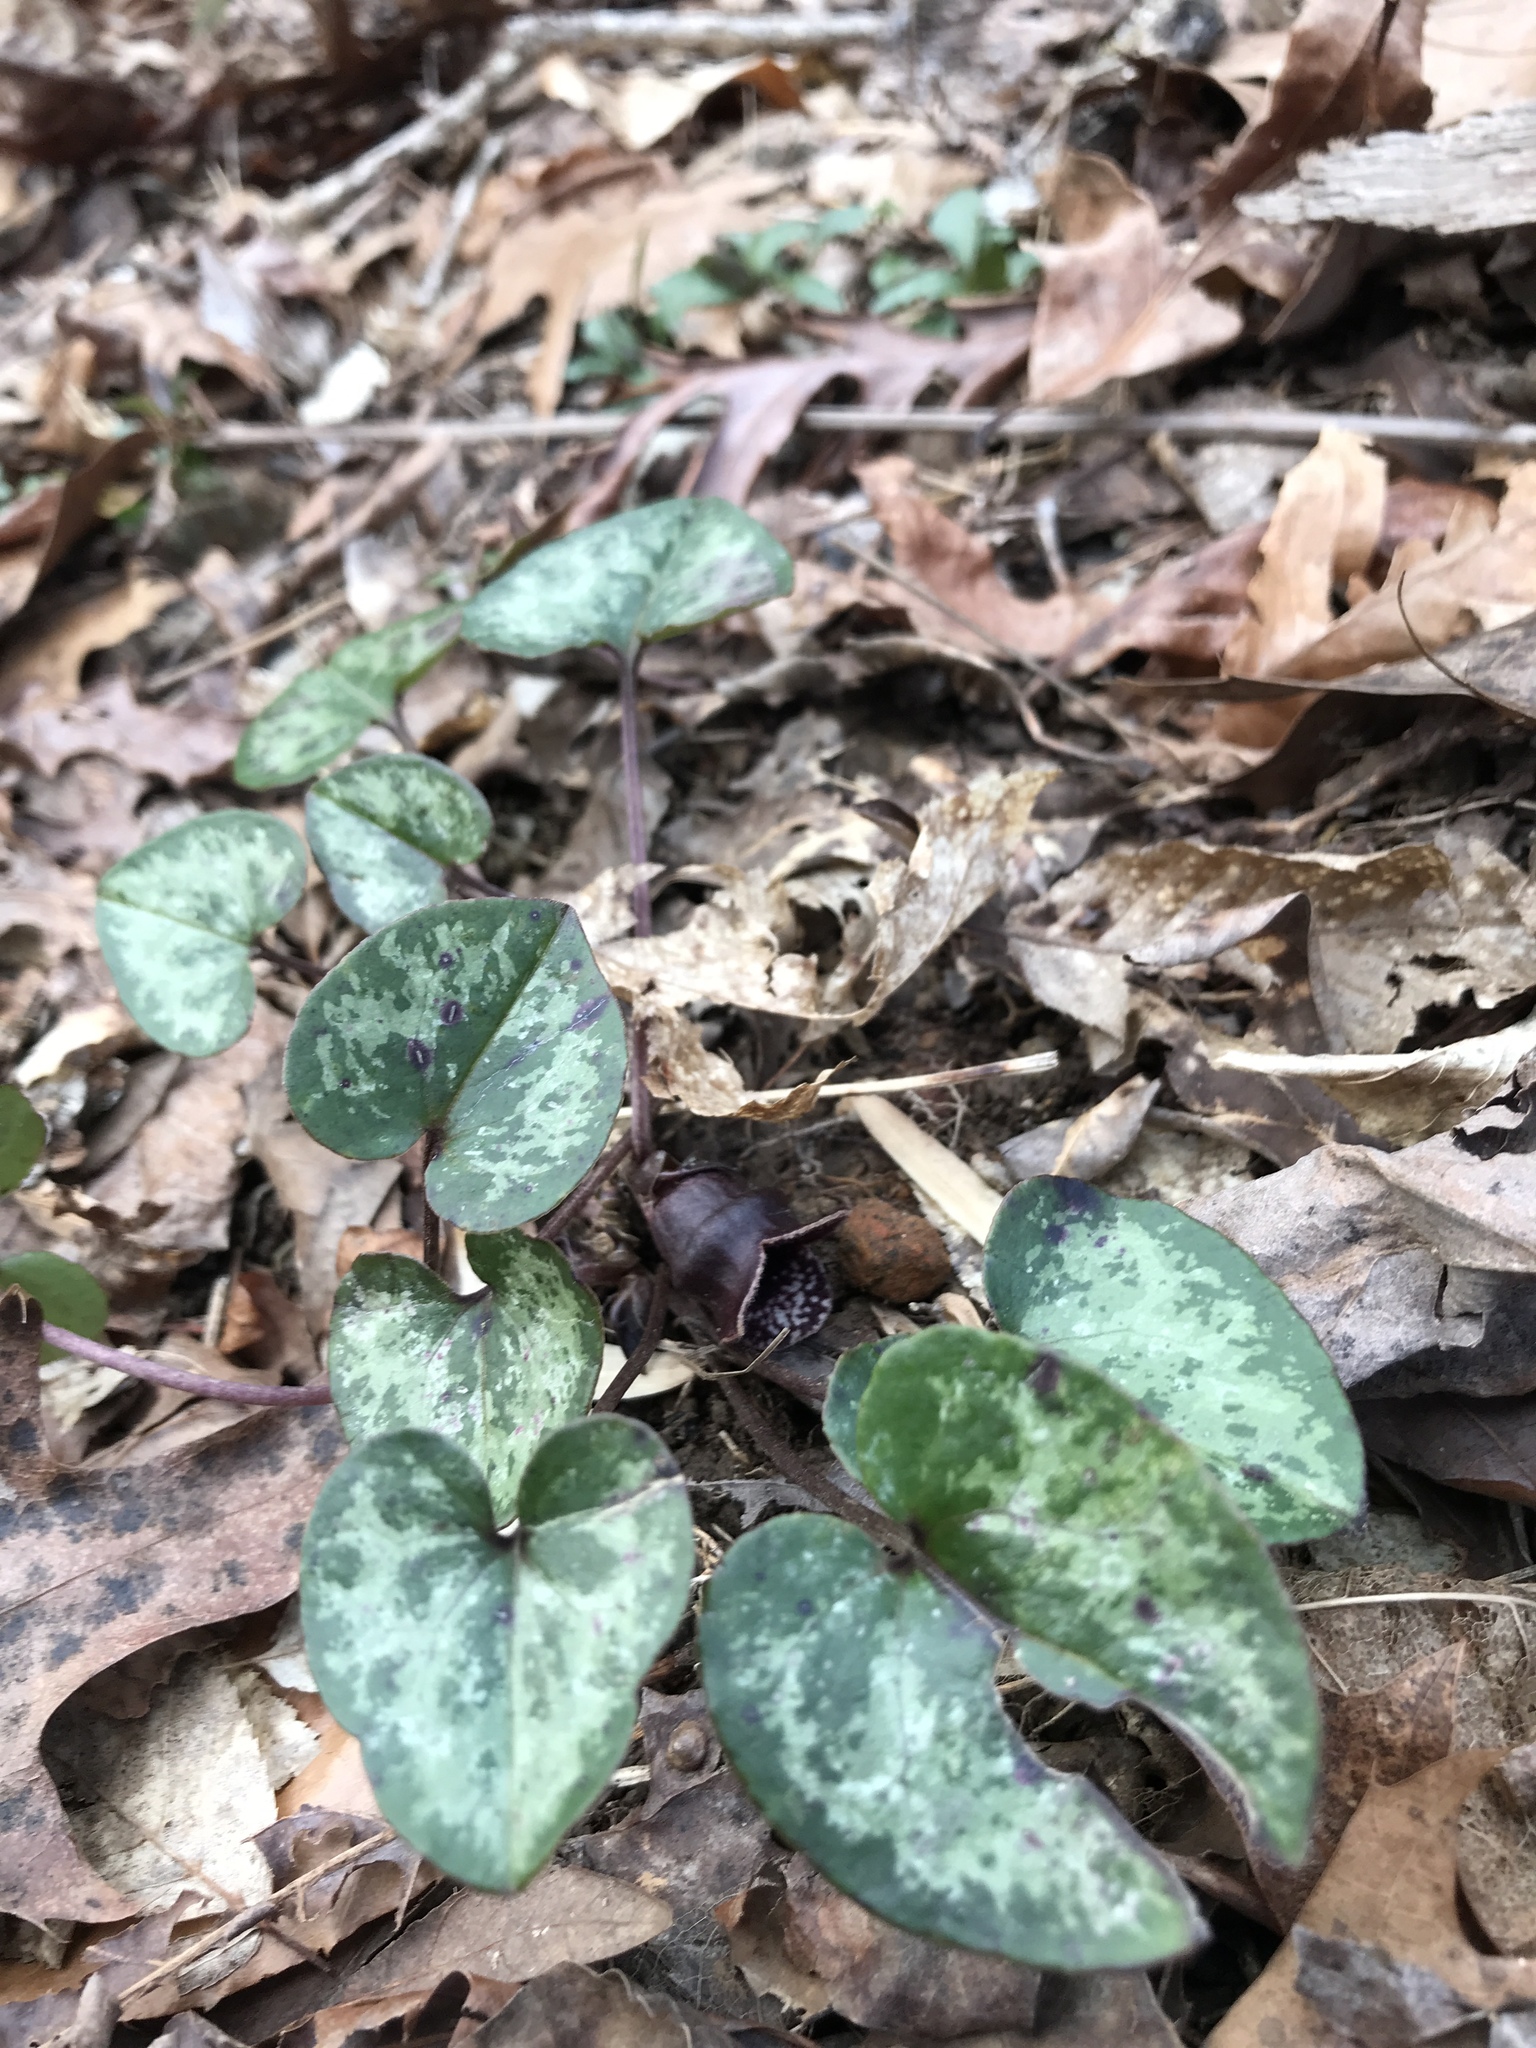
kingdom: Plantae
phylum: Tracheophyta
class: Magnoliopsida
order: Piperales
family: Aristolochiaceae
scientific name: Aristolochiaceae
